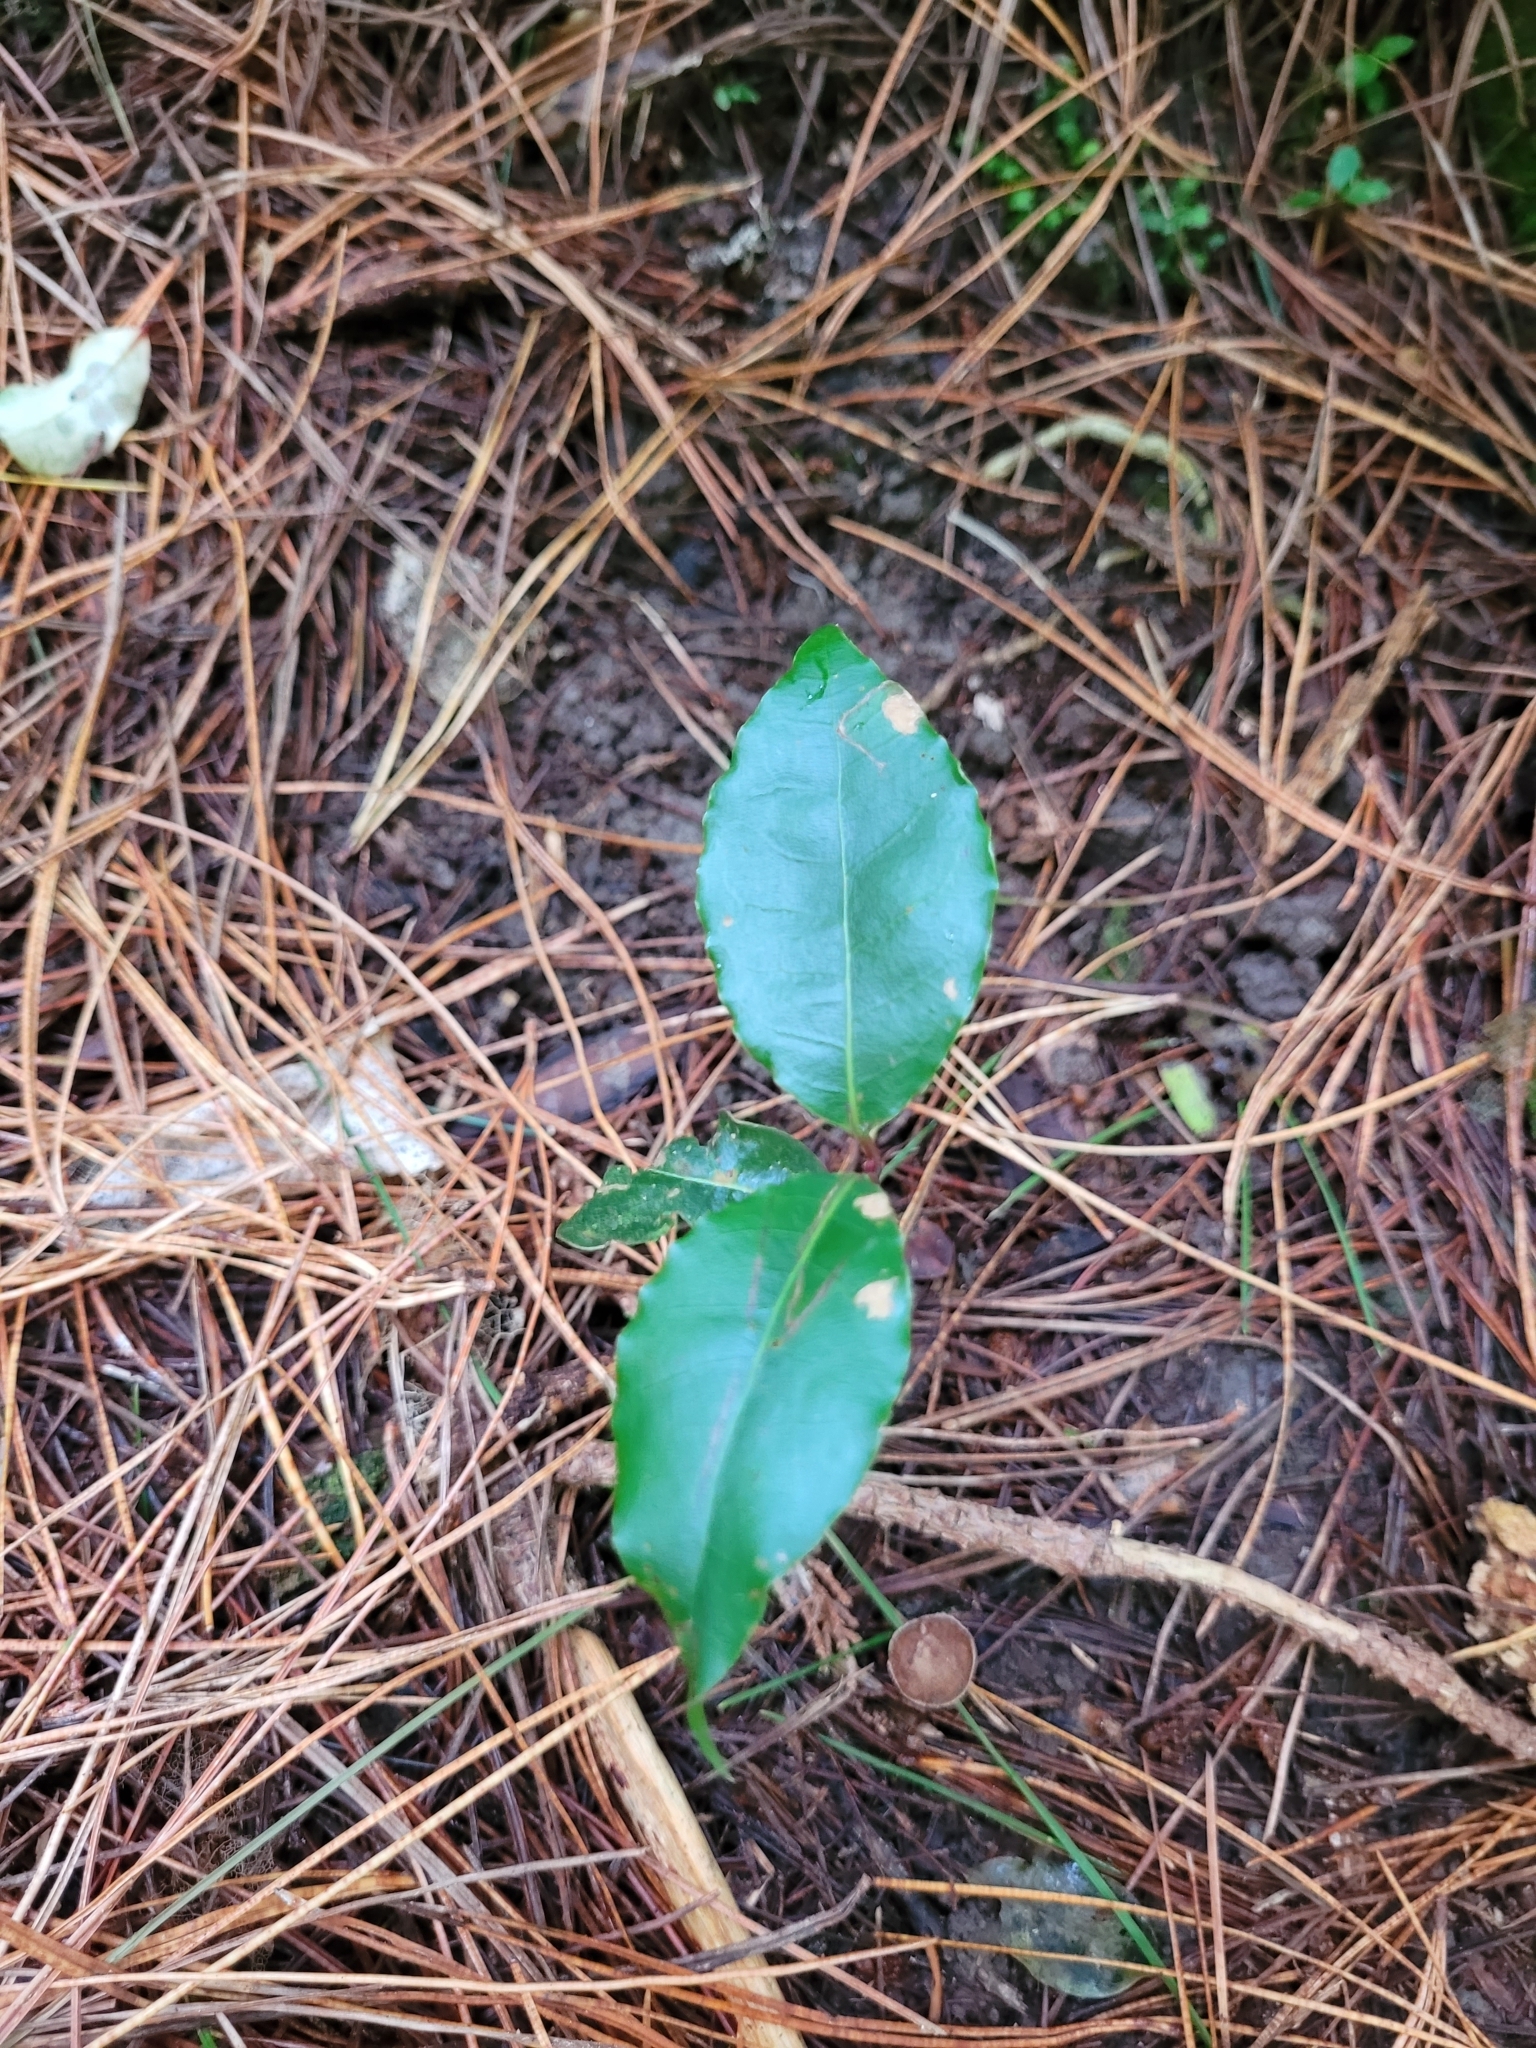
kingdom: Plantae
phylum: Tracheophyta
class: Magnoliopsida
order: Laurales
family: Lauraceae
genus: Laurus
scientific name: Laurus nobilis
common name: Bay
